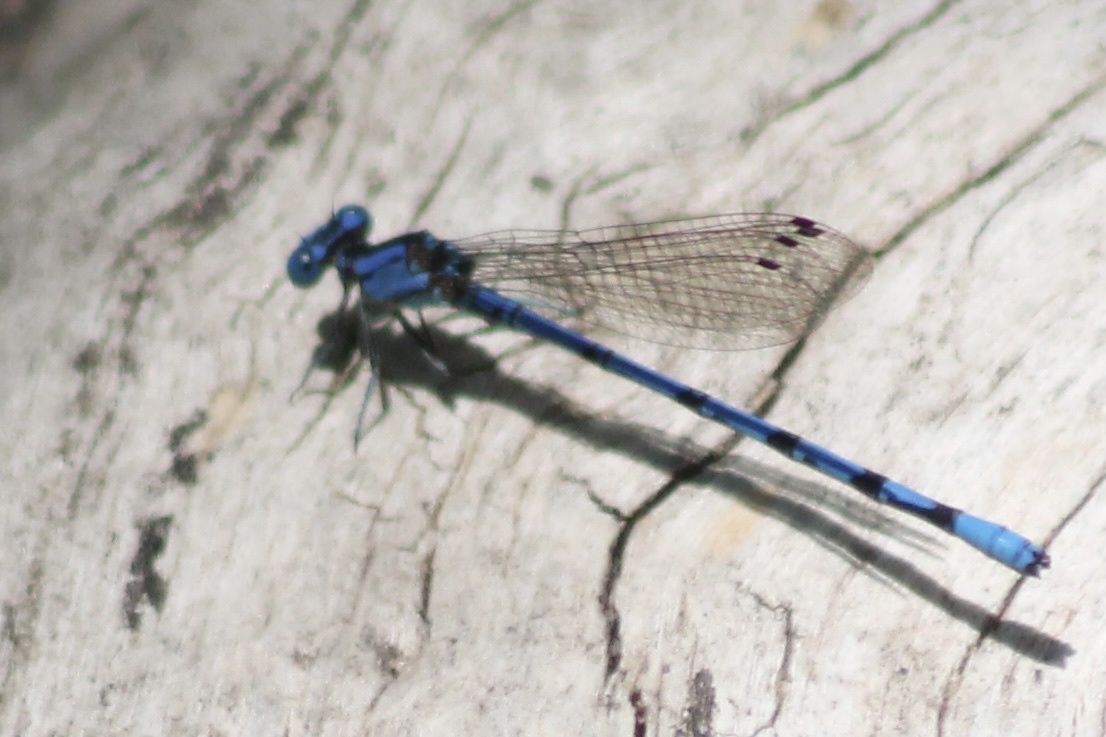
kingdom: Animalia
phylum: Arthropoda
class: Insecta
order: Odonata
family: Coenagrionidae
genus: Argia
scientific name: Argia funebris
